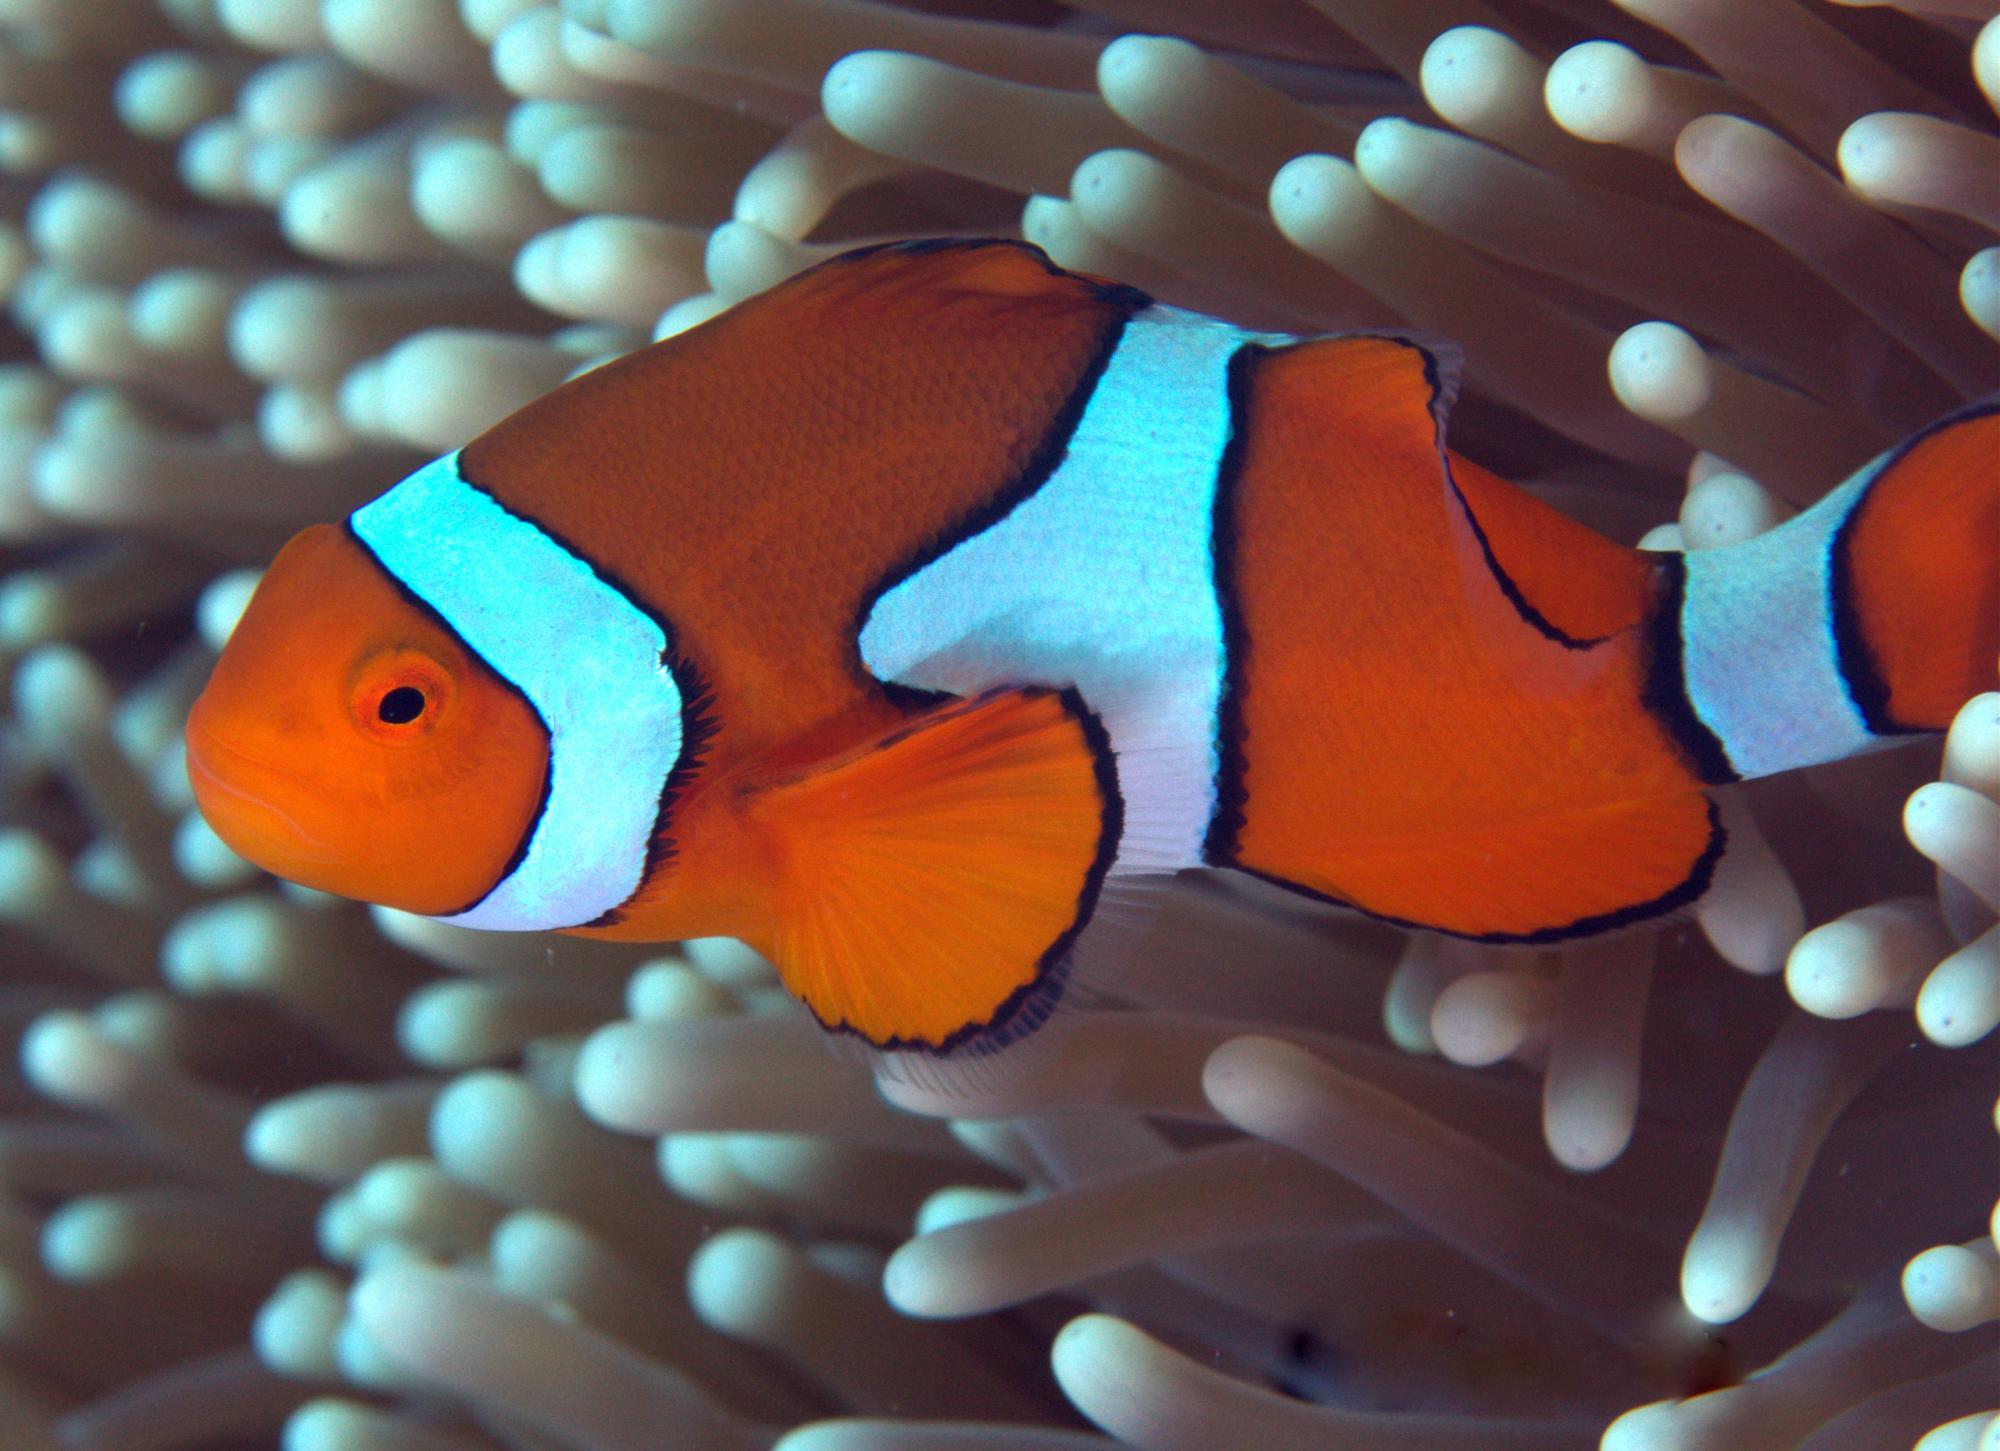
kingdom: Animalia
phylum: Chordata
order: Perciformes
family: Pomacentridae
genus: Amphiprion
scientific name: Amphiprion percula
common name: Clown anemonefish
